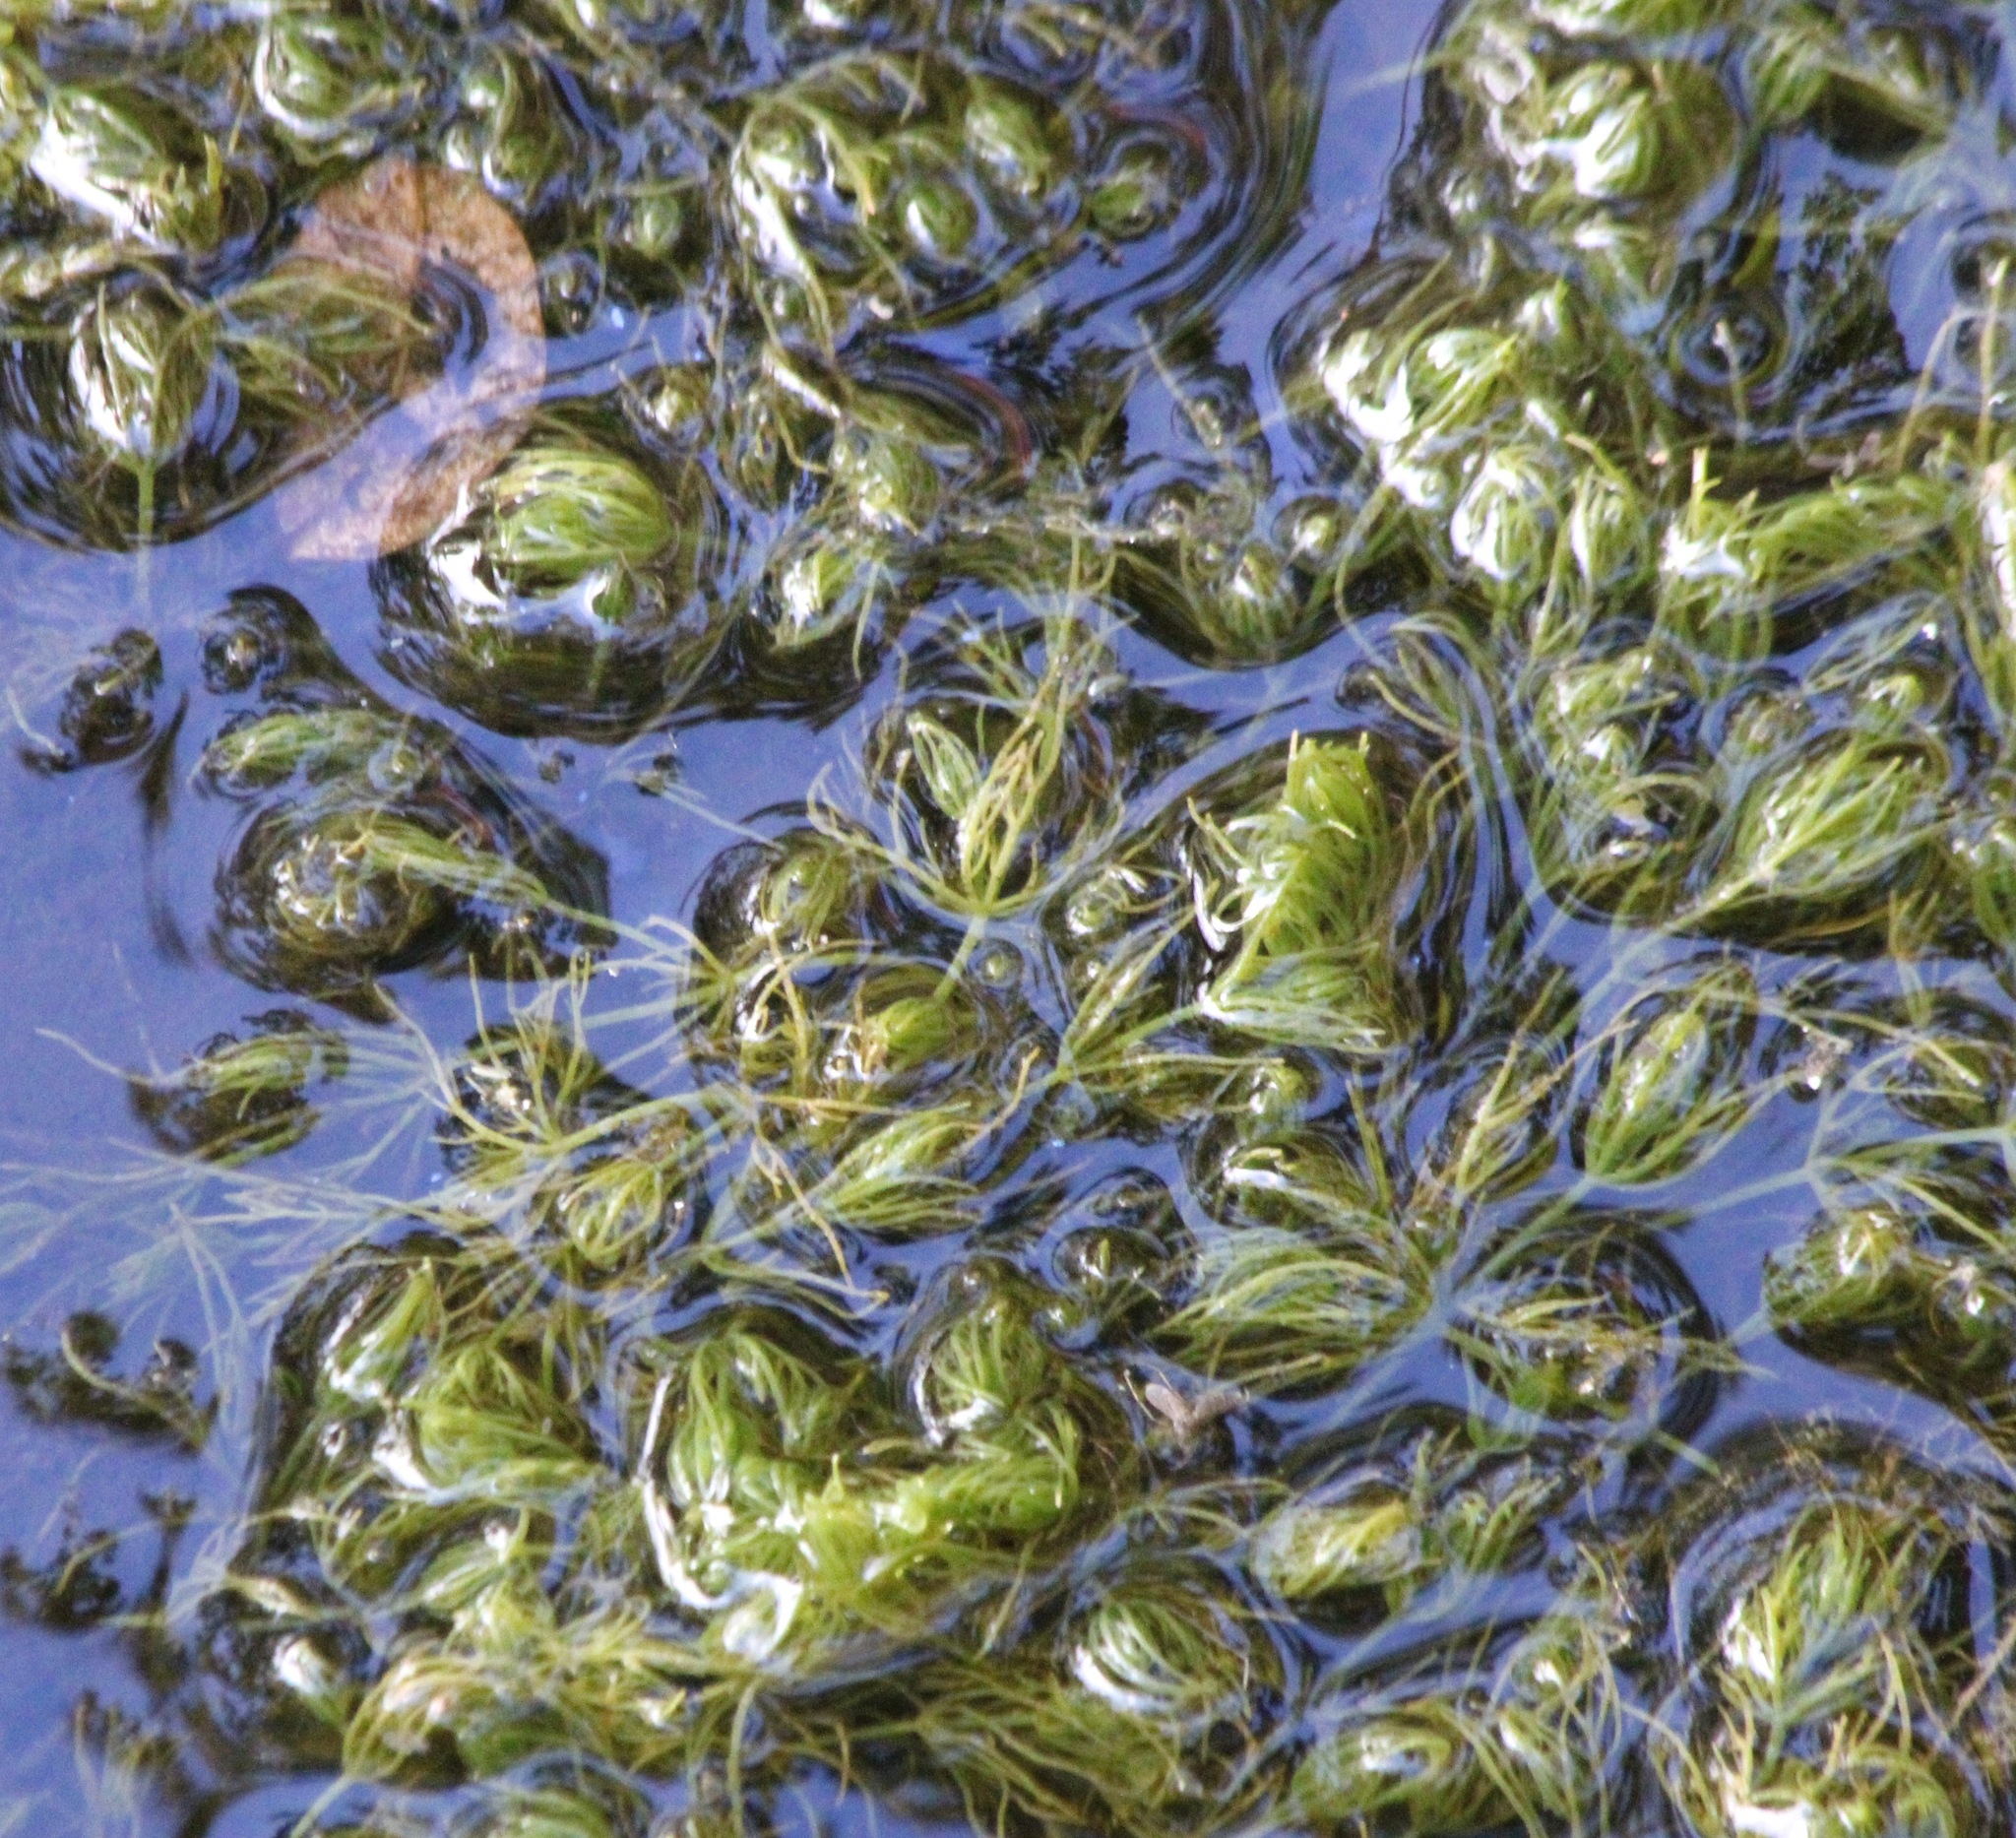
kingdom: Plantae
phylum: Charophyta
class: Charophyceae
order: Charales
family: Characeae
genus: Chara
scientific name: Chara vulgaris
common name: Common stonewort
